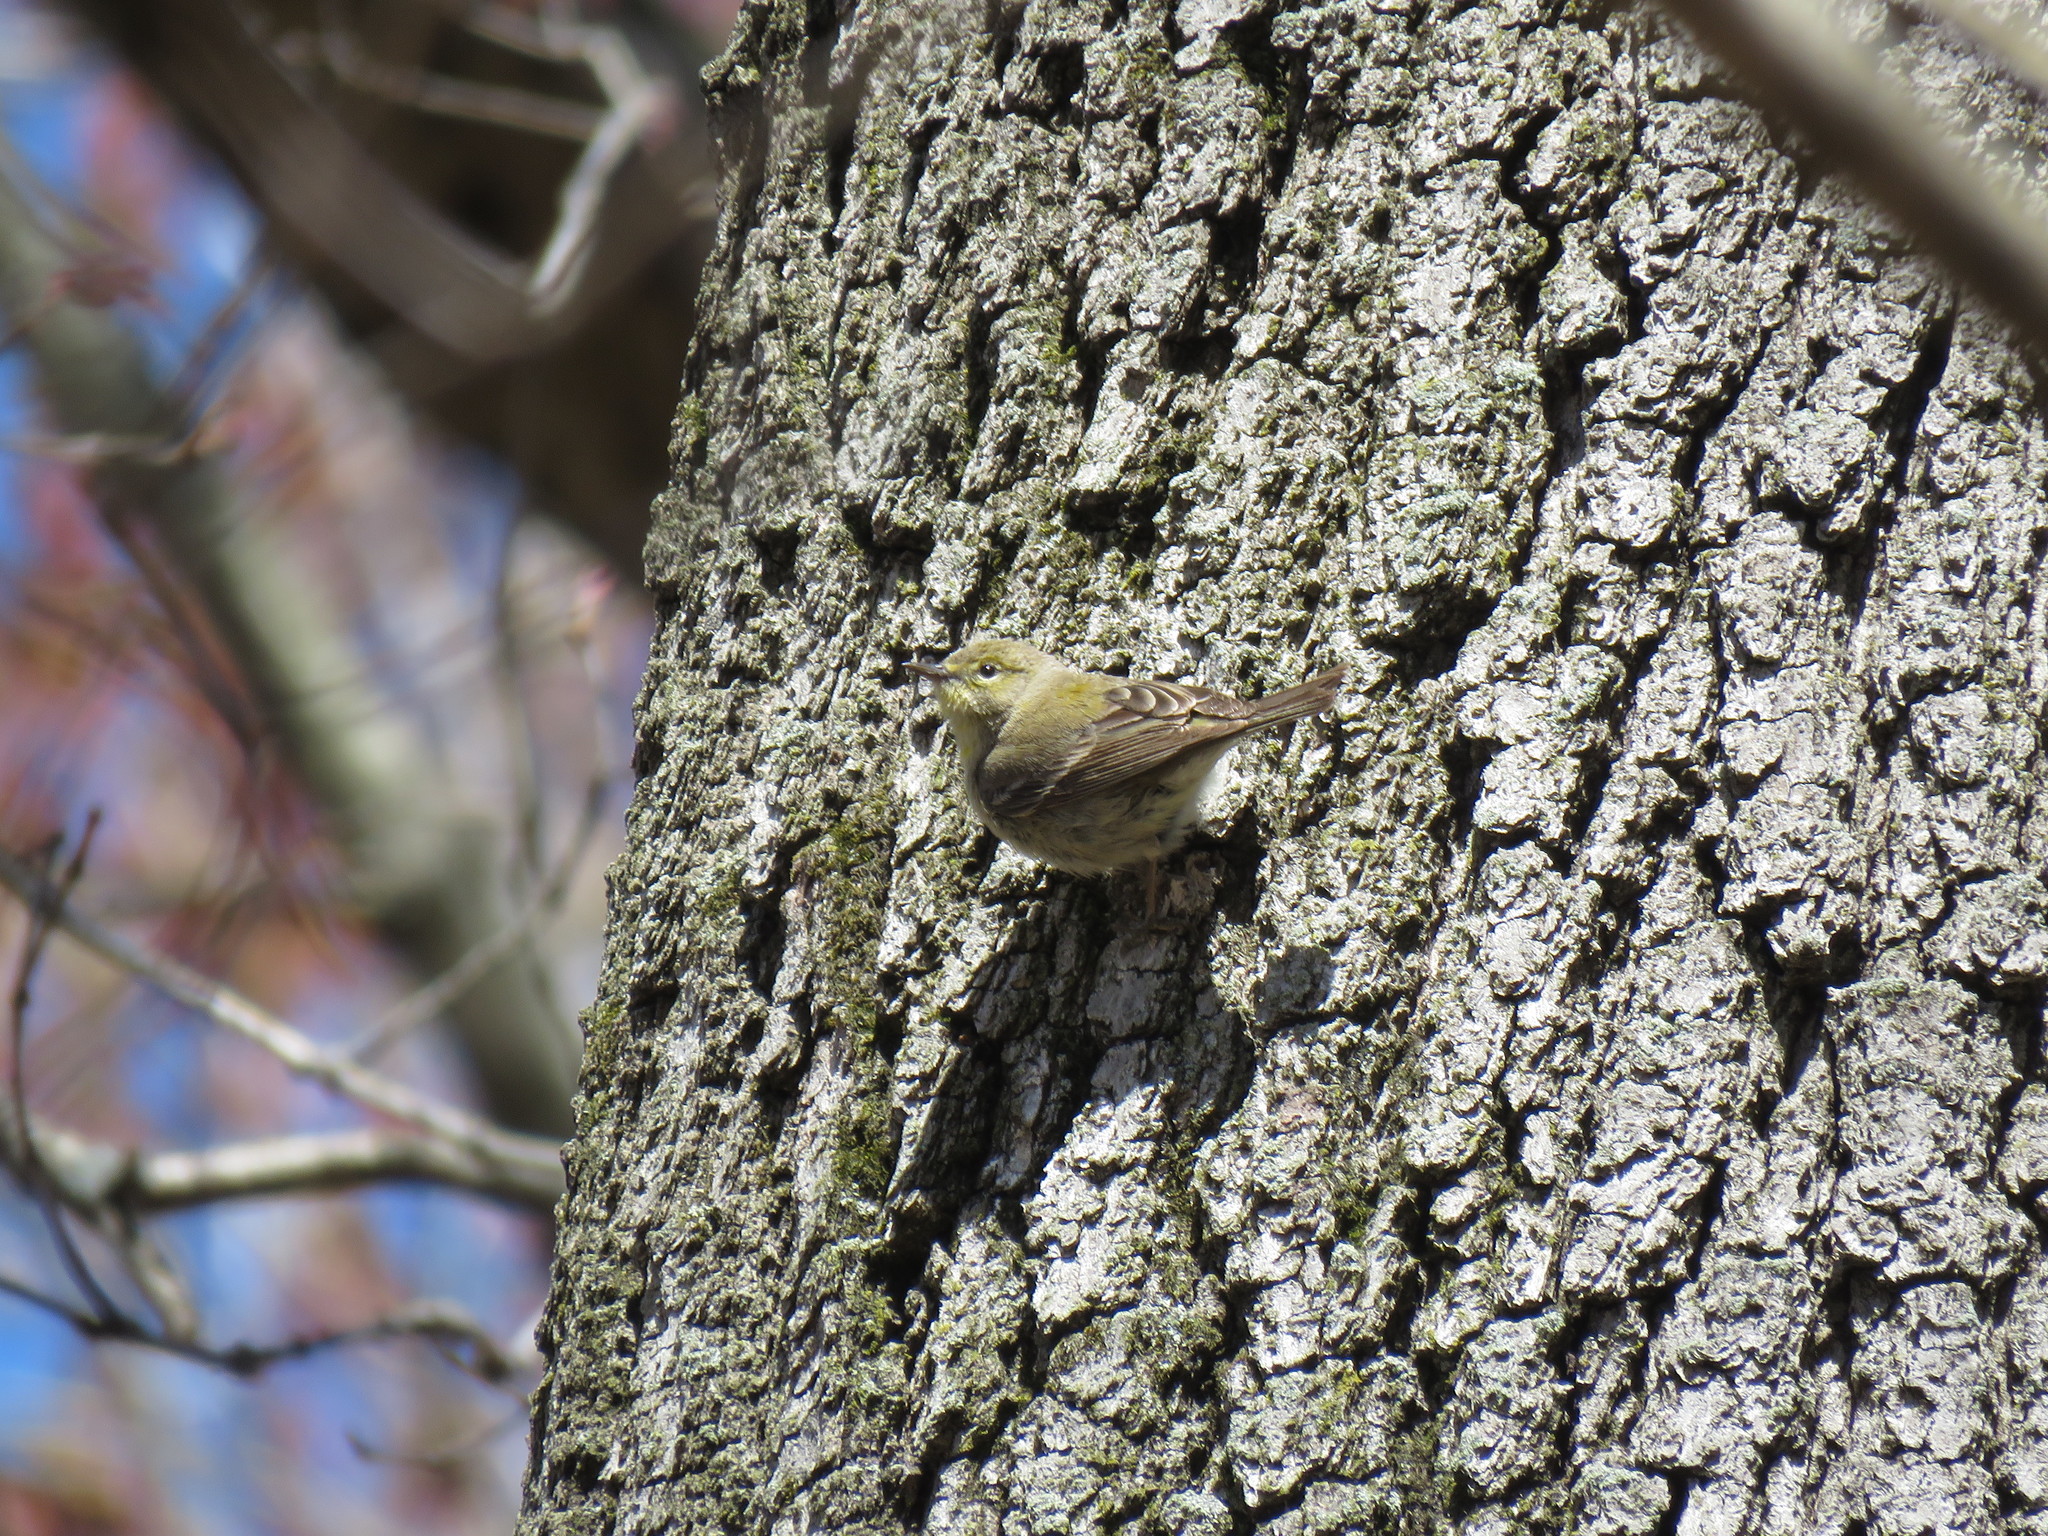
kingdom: Animalia
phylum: Chordata
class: Aves
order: Passeriformes
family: Parulidae
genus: Setophaga
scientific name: Setophaga pinus
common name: Pine warbler
